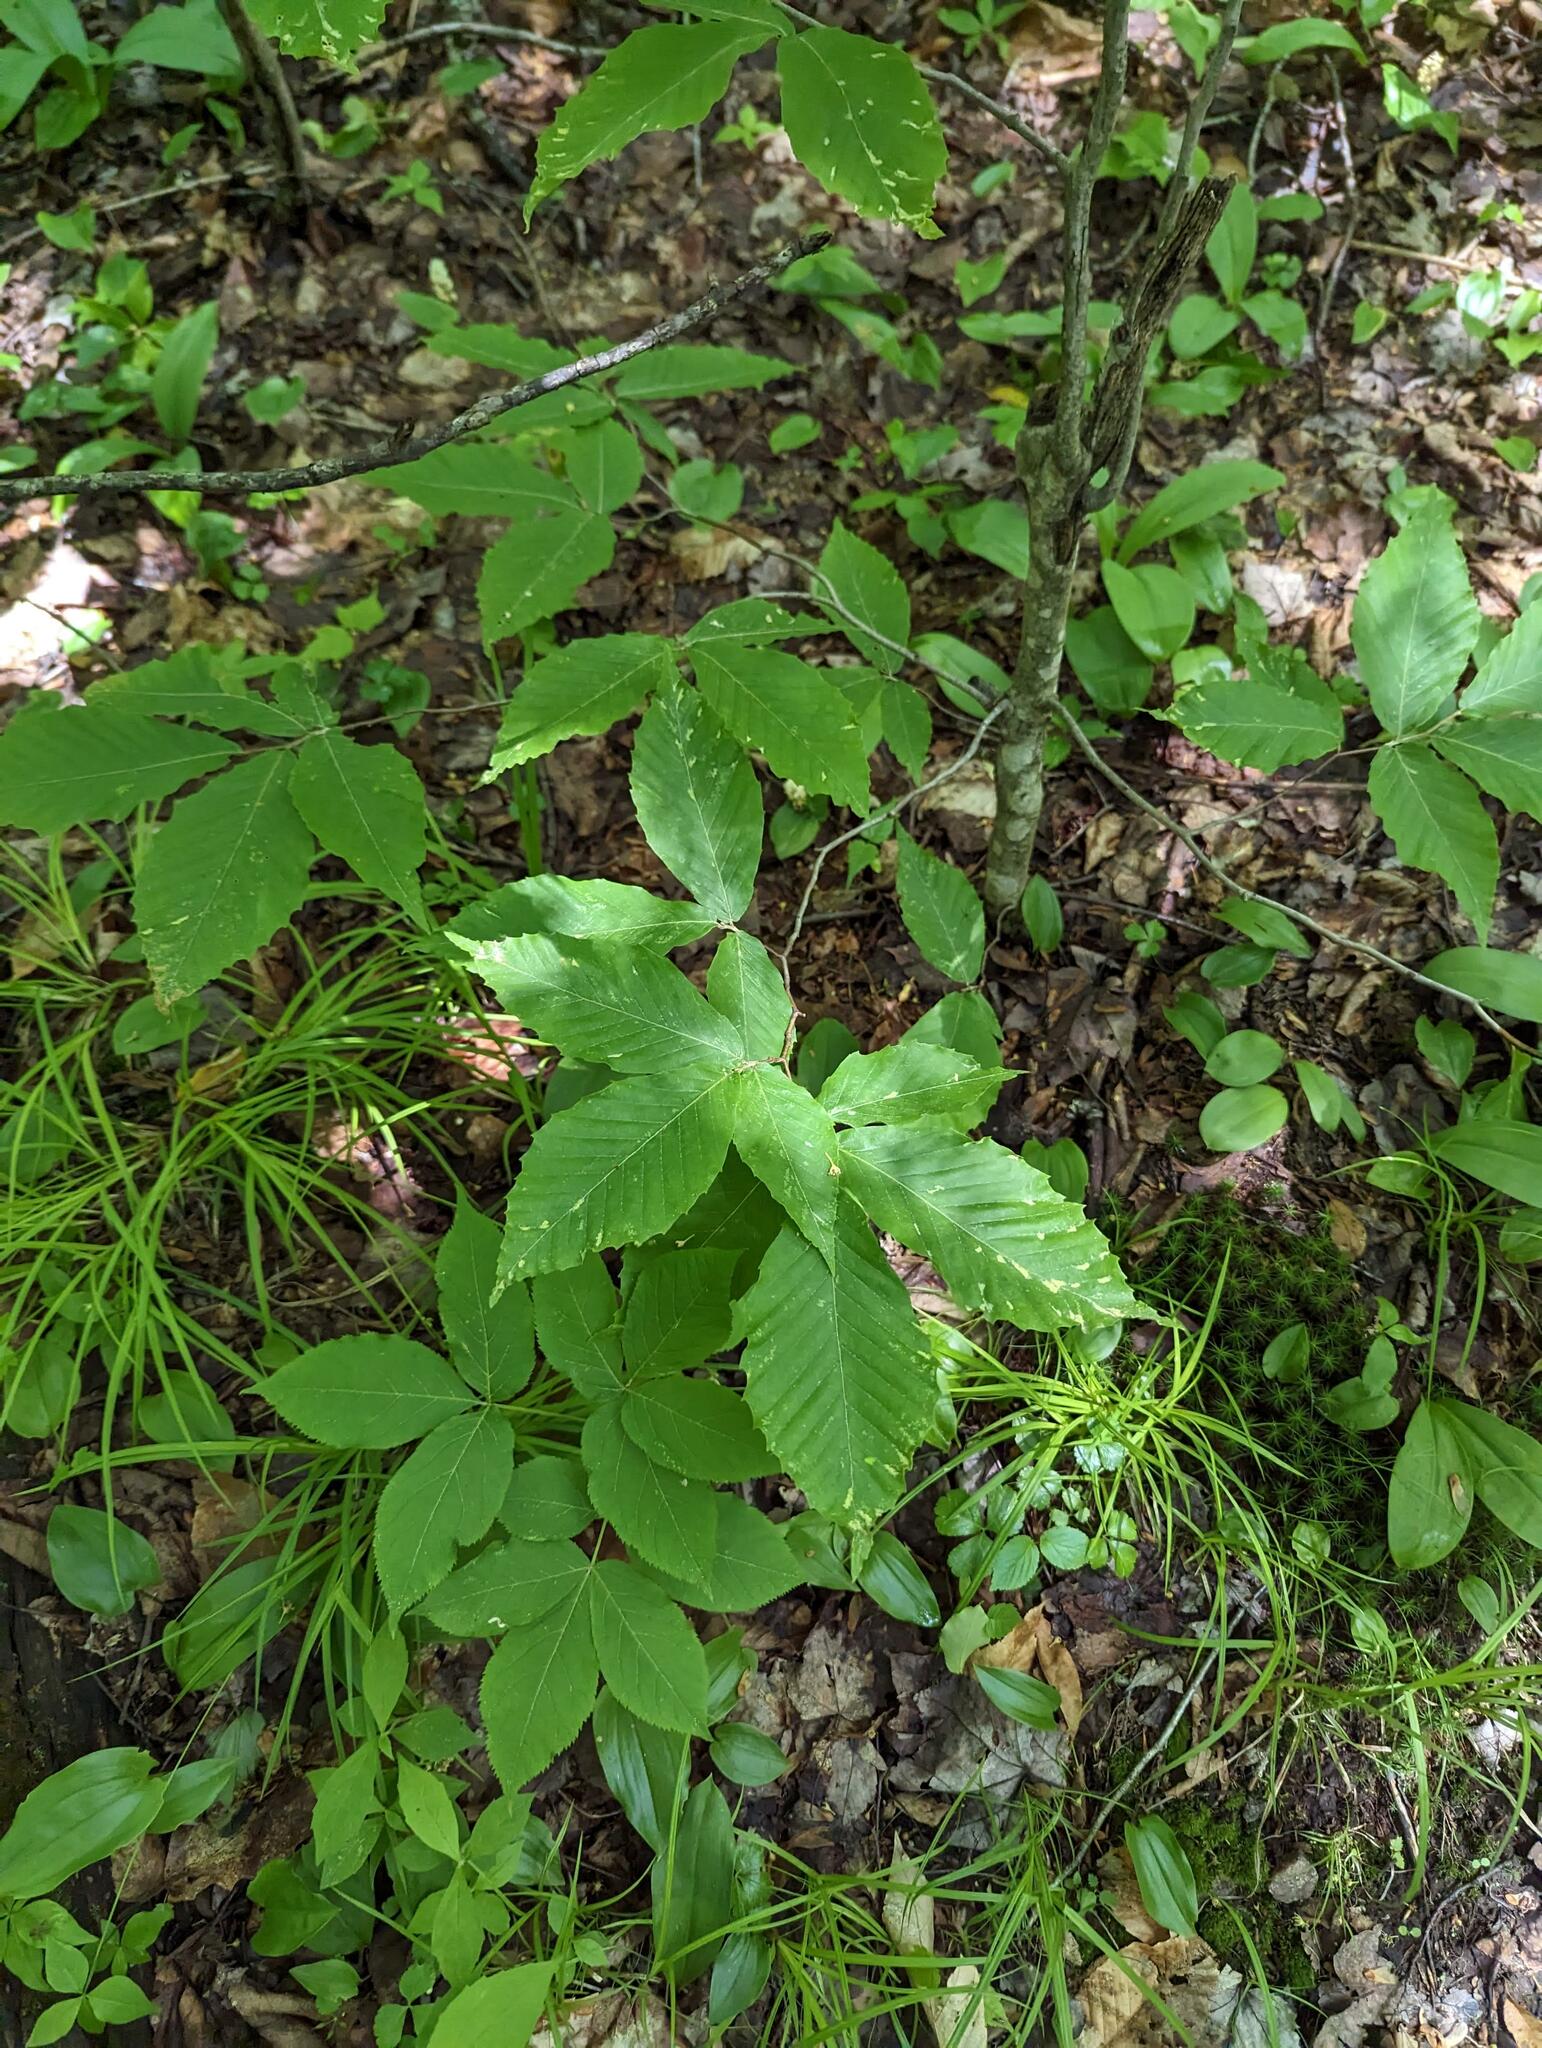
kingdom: Plantae
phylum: Tracheophyta
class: Magnoliopsida
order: Fagales
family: Fagaceae
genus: Fagus
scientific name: Fagus grandifolia
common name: American beech
